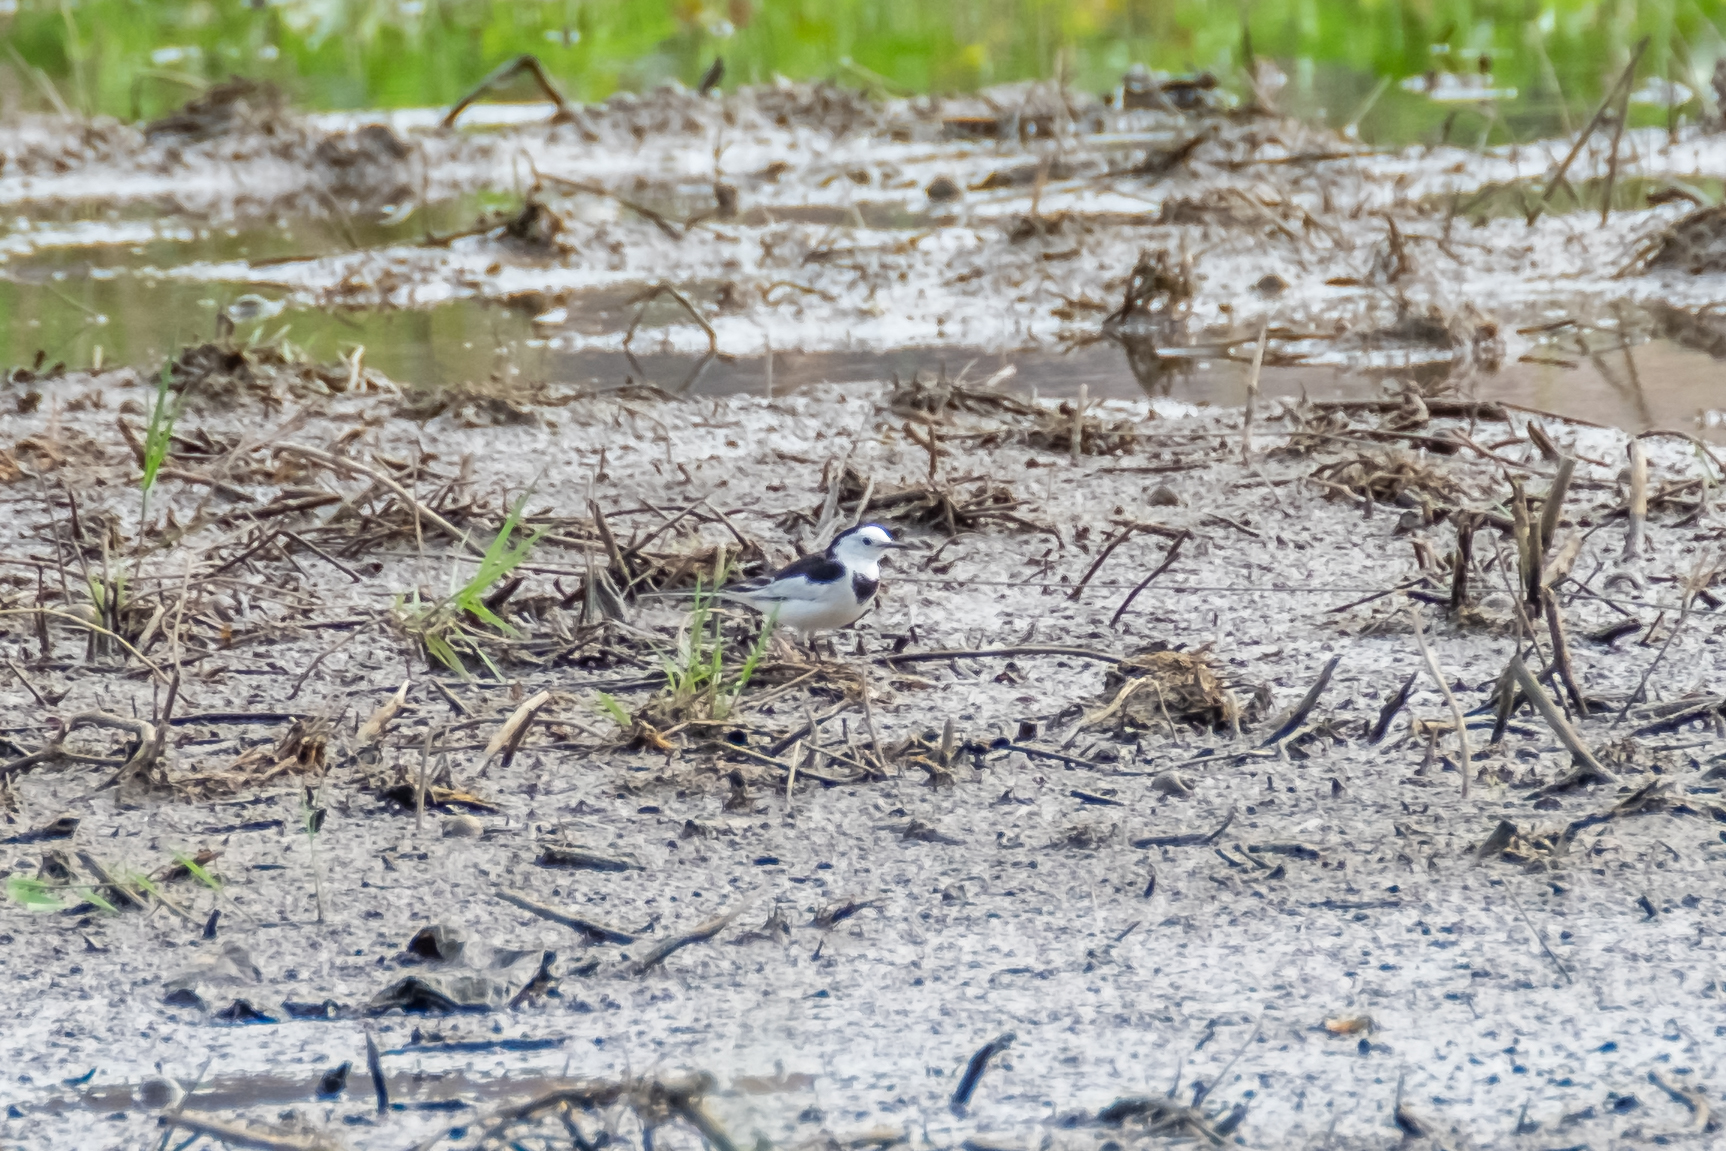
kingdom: Animalia
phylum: Chordata
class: Aves
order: Passeriformes
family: Motacillidae
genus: Motacilla
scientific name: Motacilla alba
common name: White wagtail
